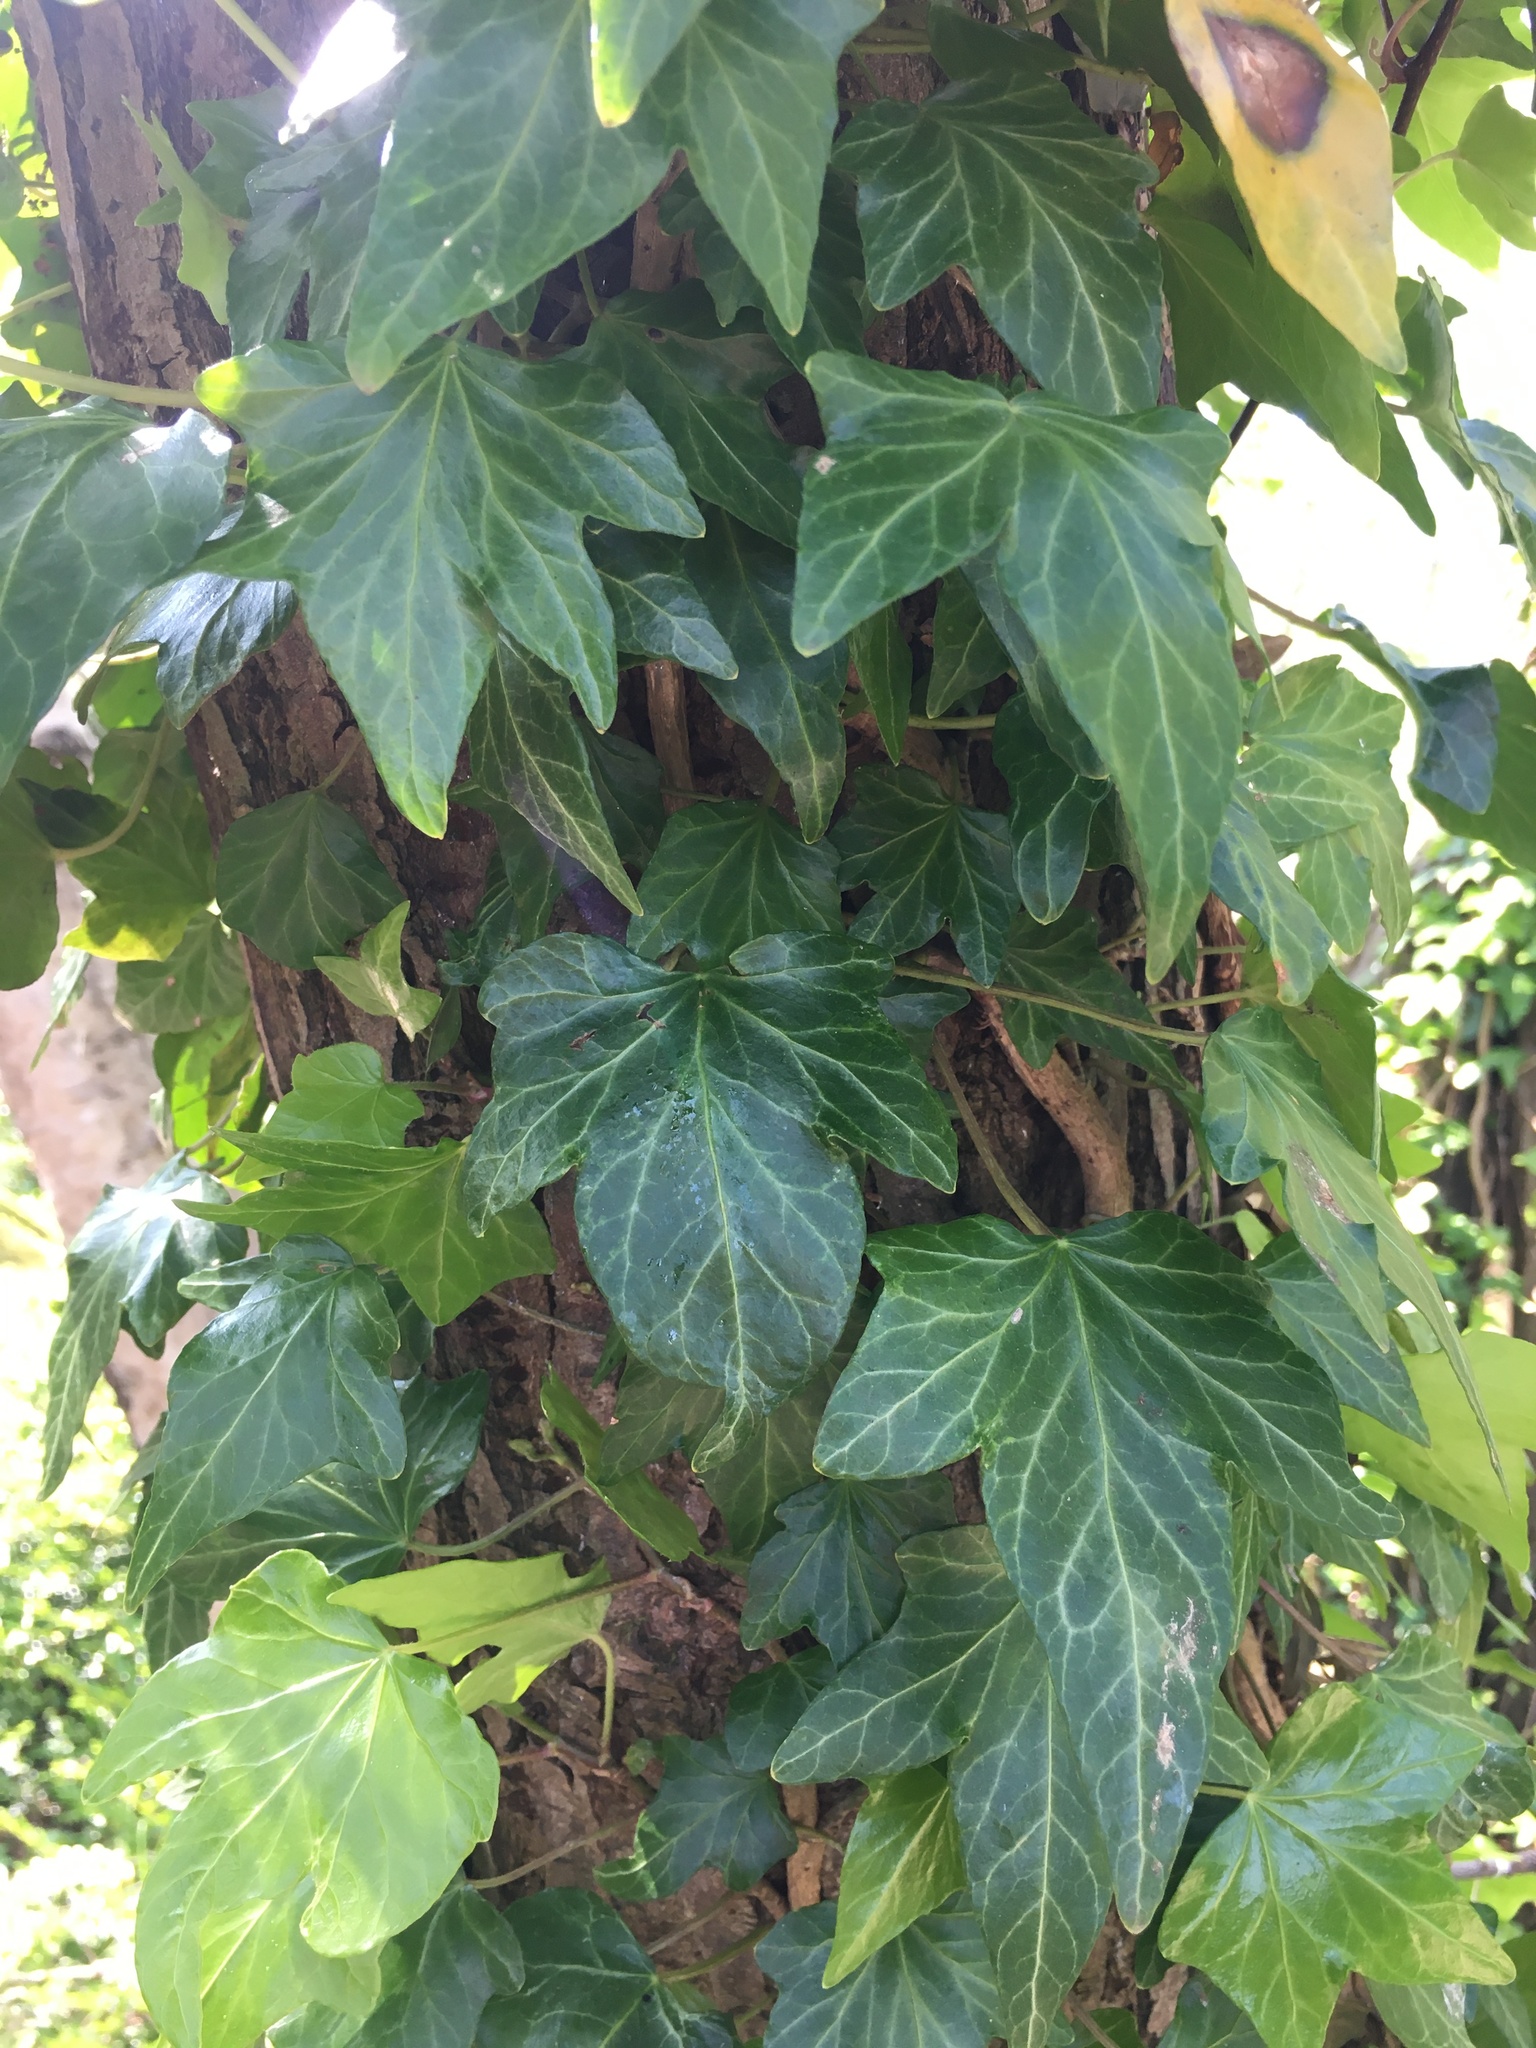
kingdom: Plantae
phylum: Tracheophyta
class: Magnoliopsida
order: Apiales
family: Araliaceae
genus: Hedera
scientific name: Hedera helix
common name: Ivy
